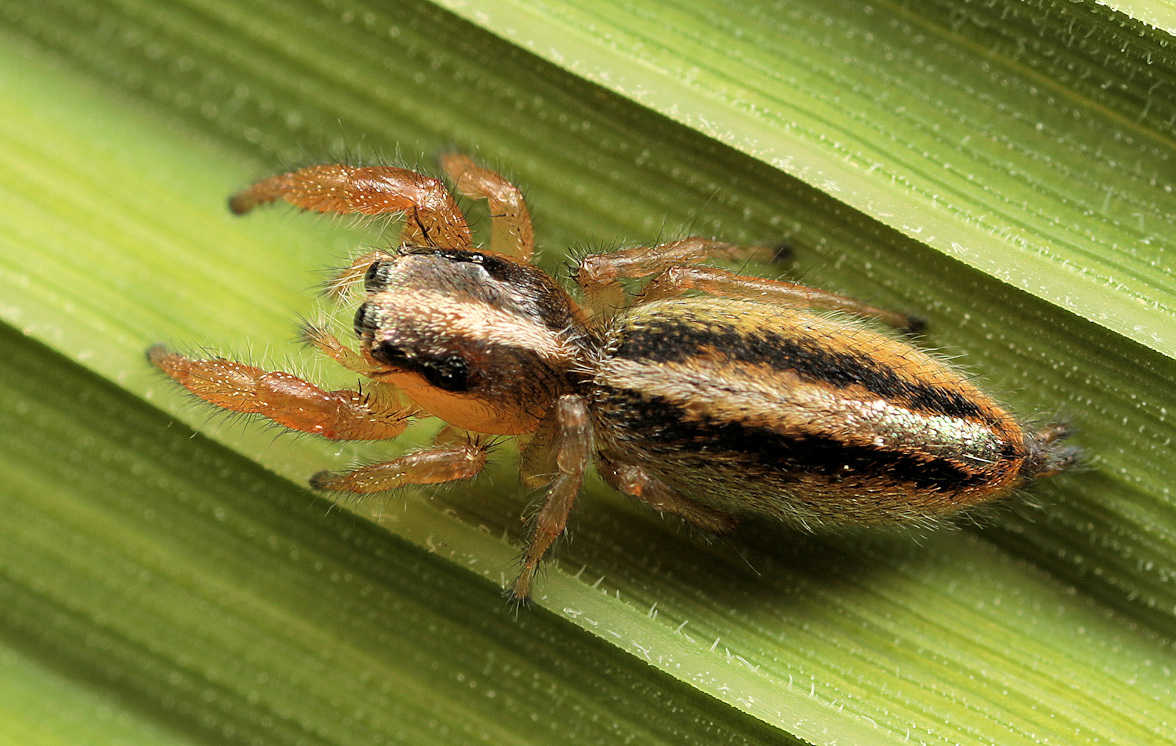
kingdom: Animalia
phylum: Arthropoda
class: Arachnida
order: Araneae
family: Salticidae
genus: Thyene
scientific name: Thyene thyenioides
